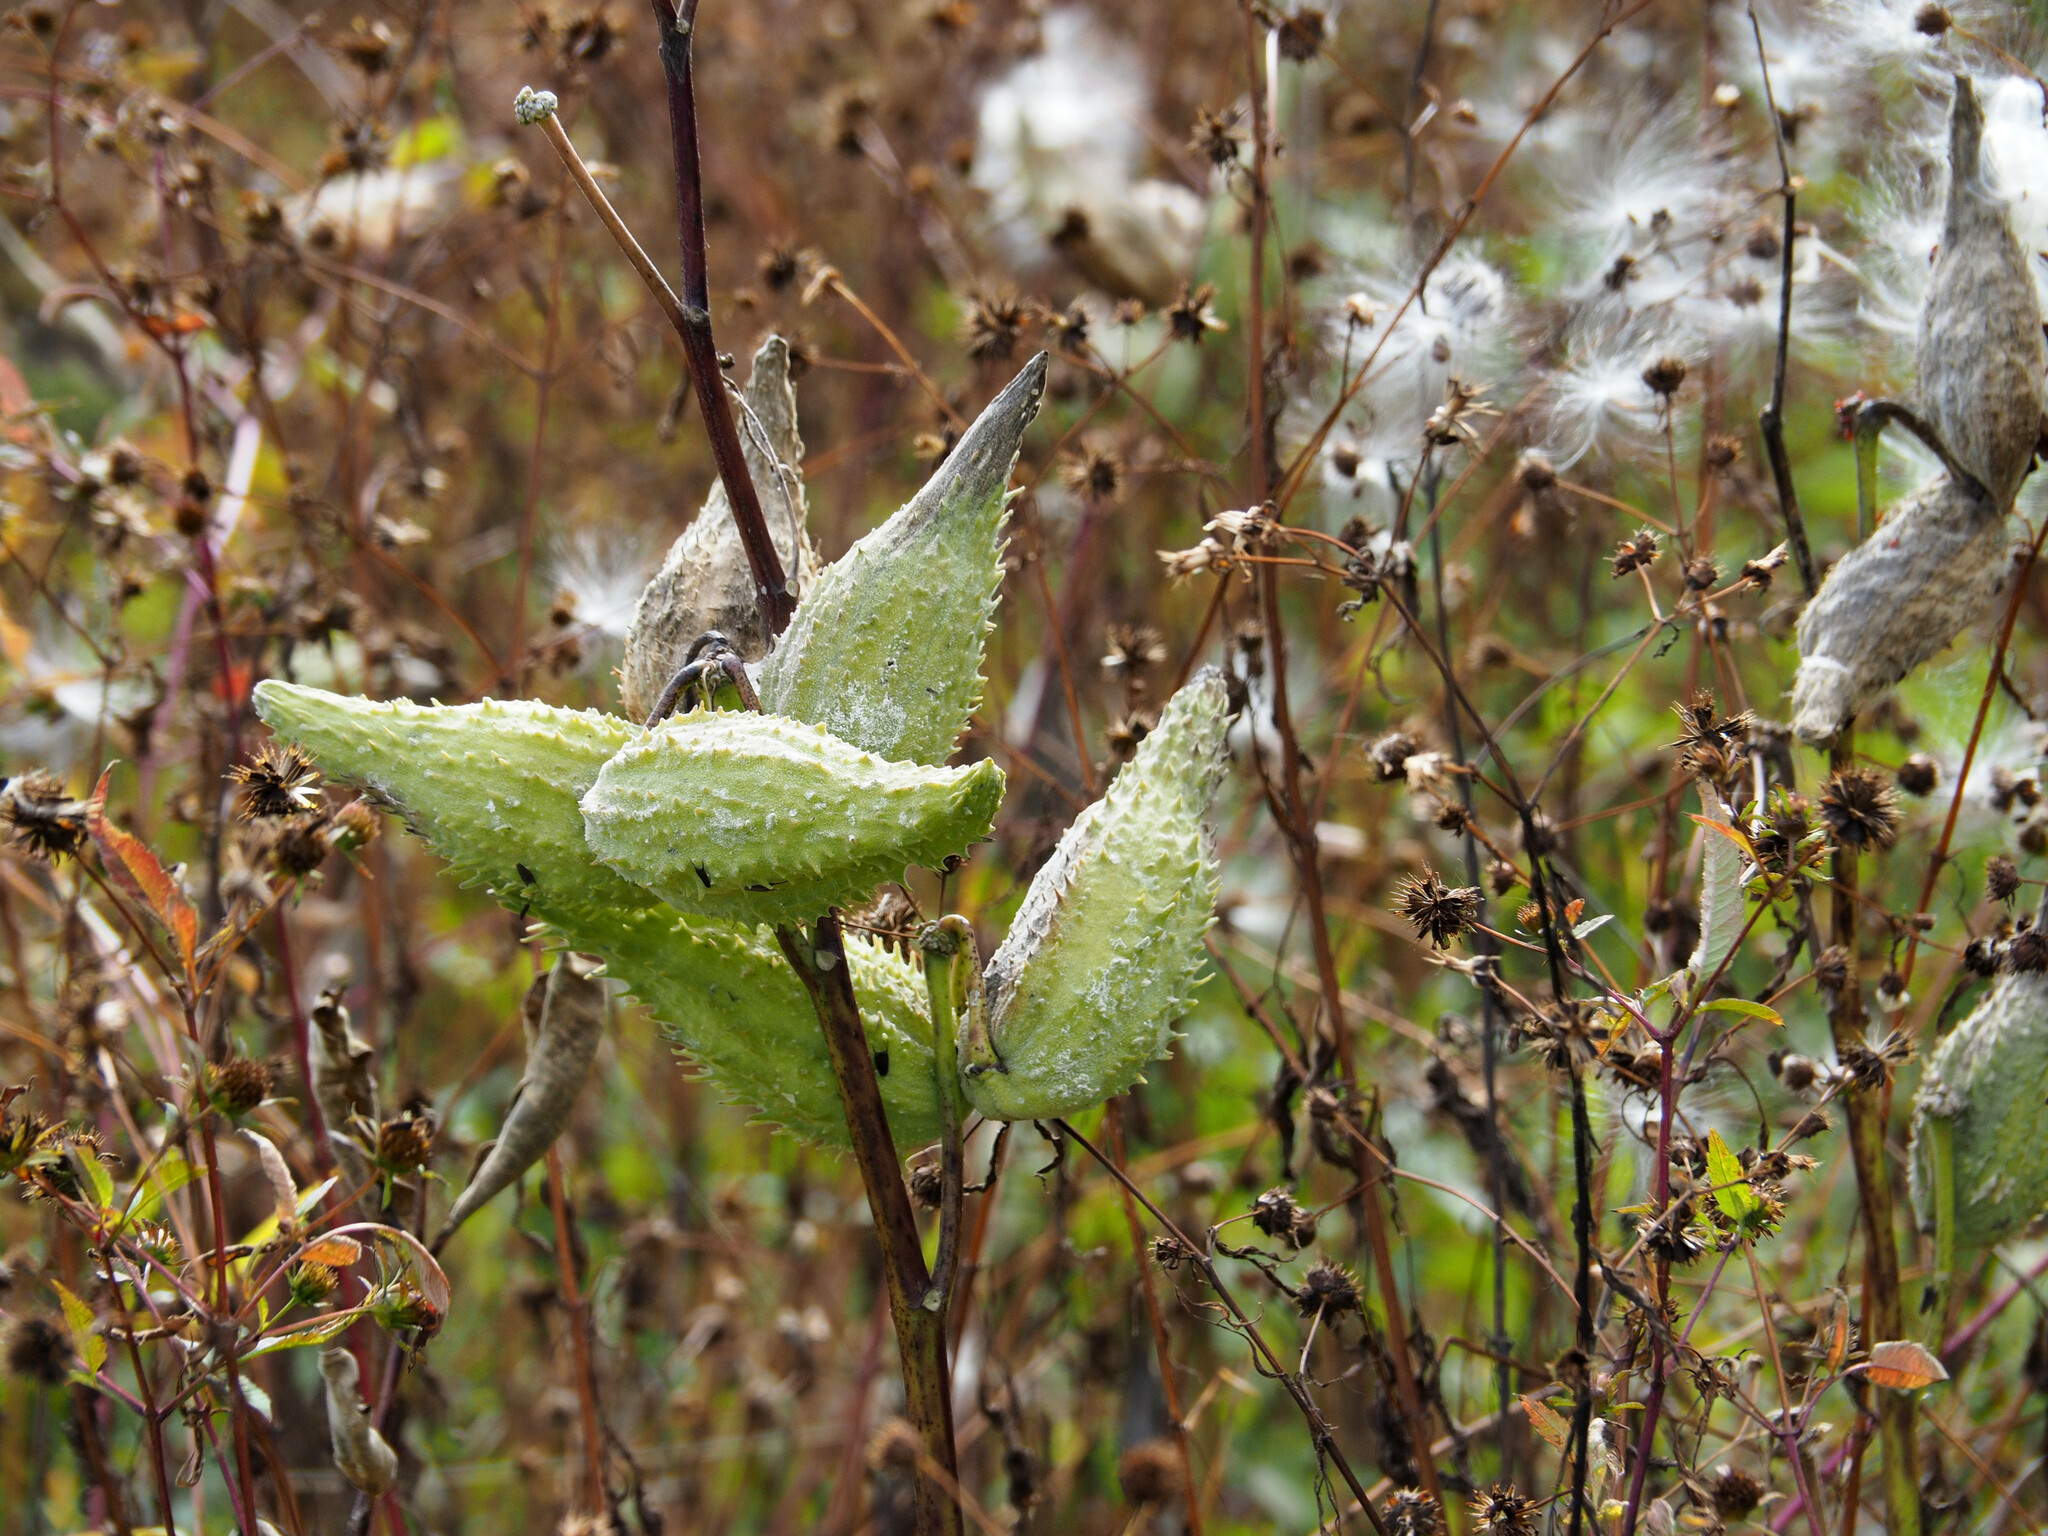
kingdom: Plantae
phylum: Tracheophyta
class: Magnoliopsida
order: Gentianales
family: Apocynaceae
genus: Asclepias
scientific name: Asclepias syriaca
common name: Common milkweed
